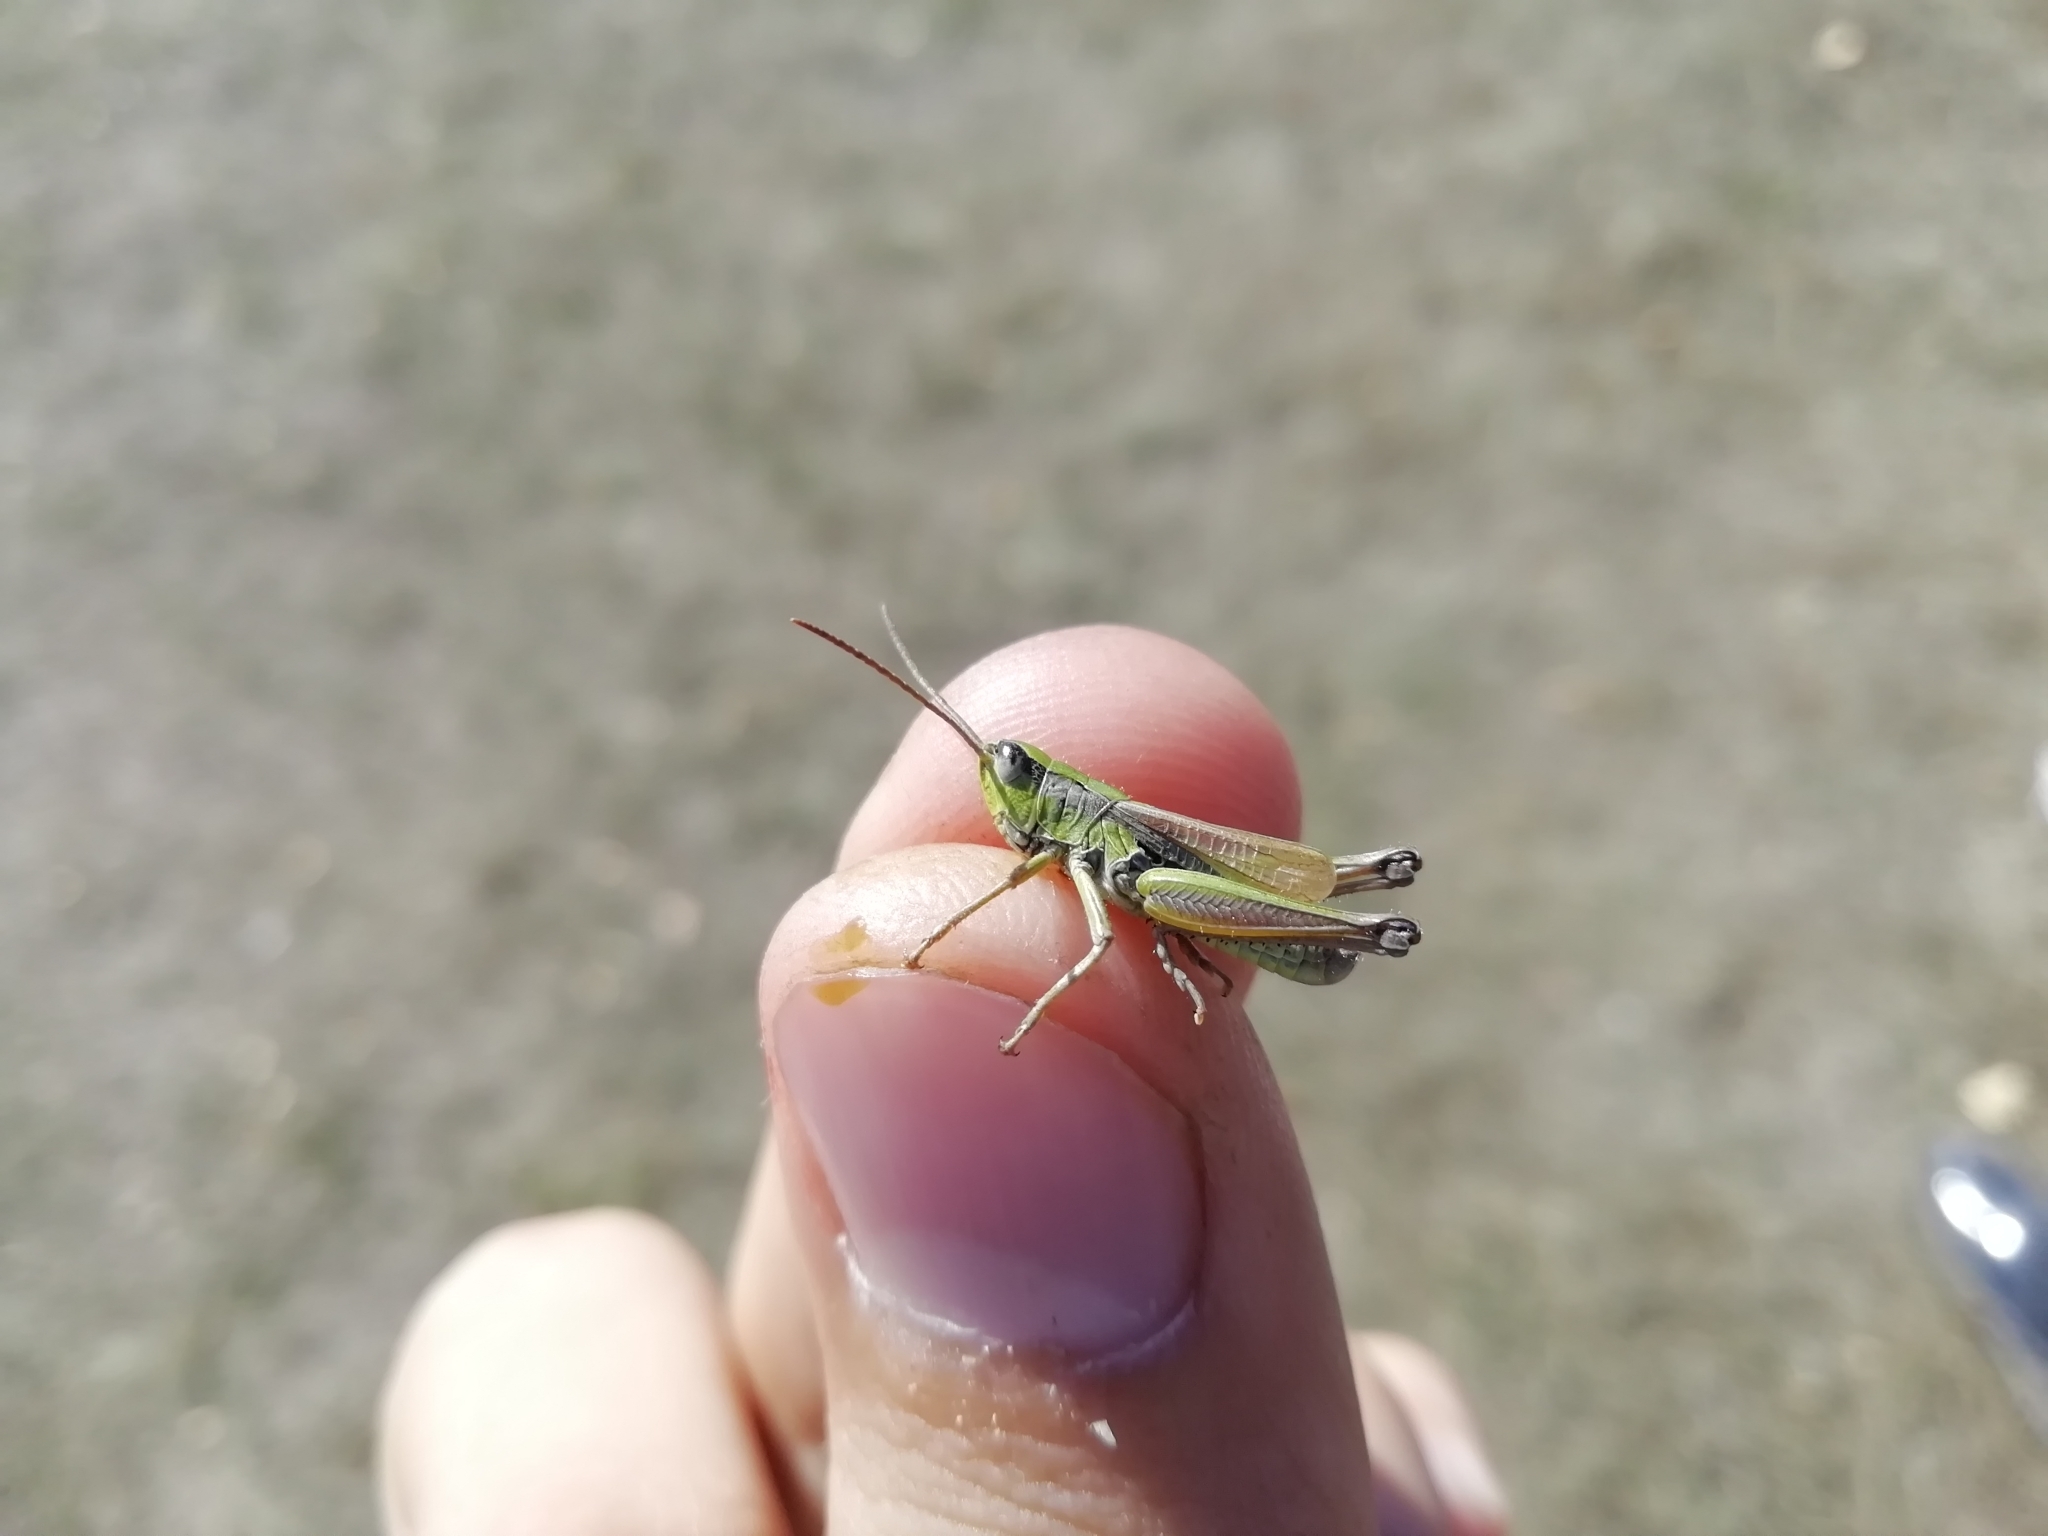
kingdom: Animalia
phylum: Arthropoda
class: Insecta
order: Orthoptera
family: Acrididae
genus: Chorthippus
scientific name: Chorthippus fallax
